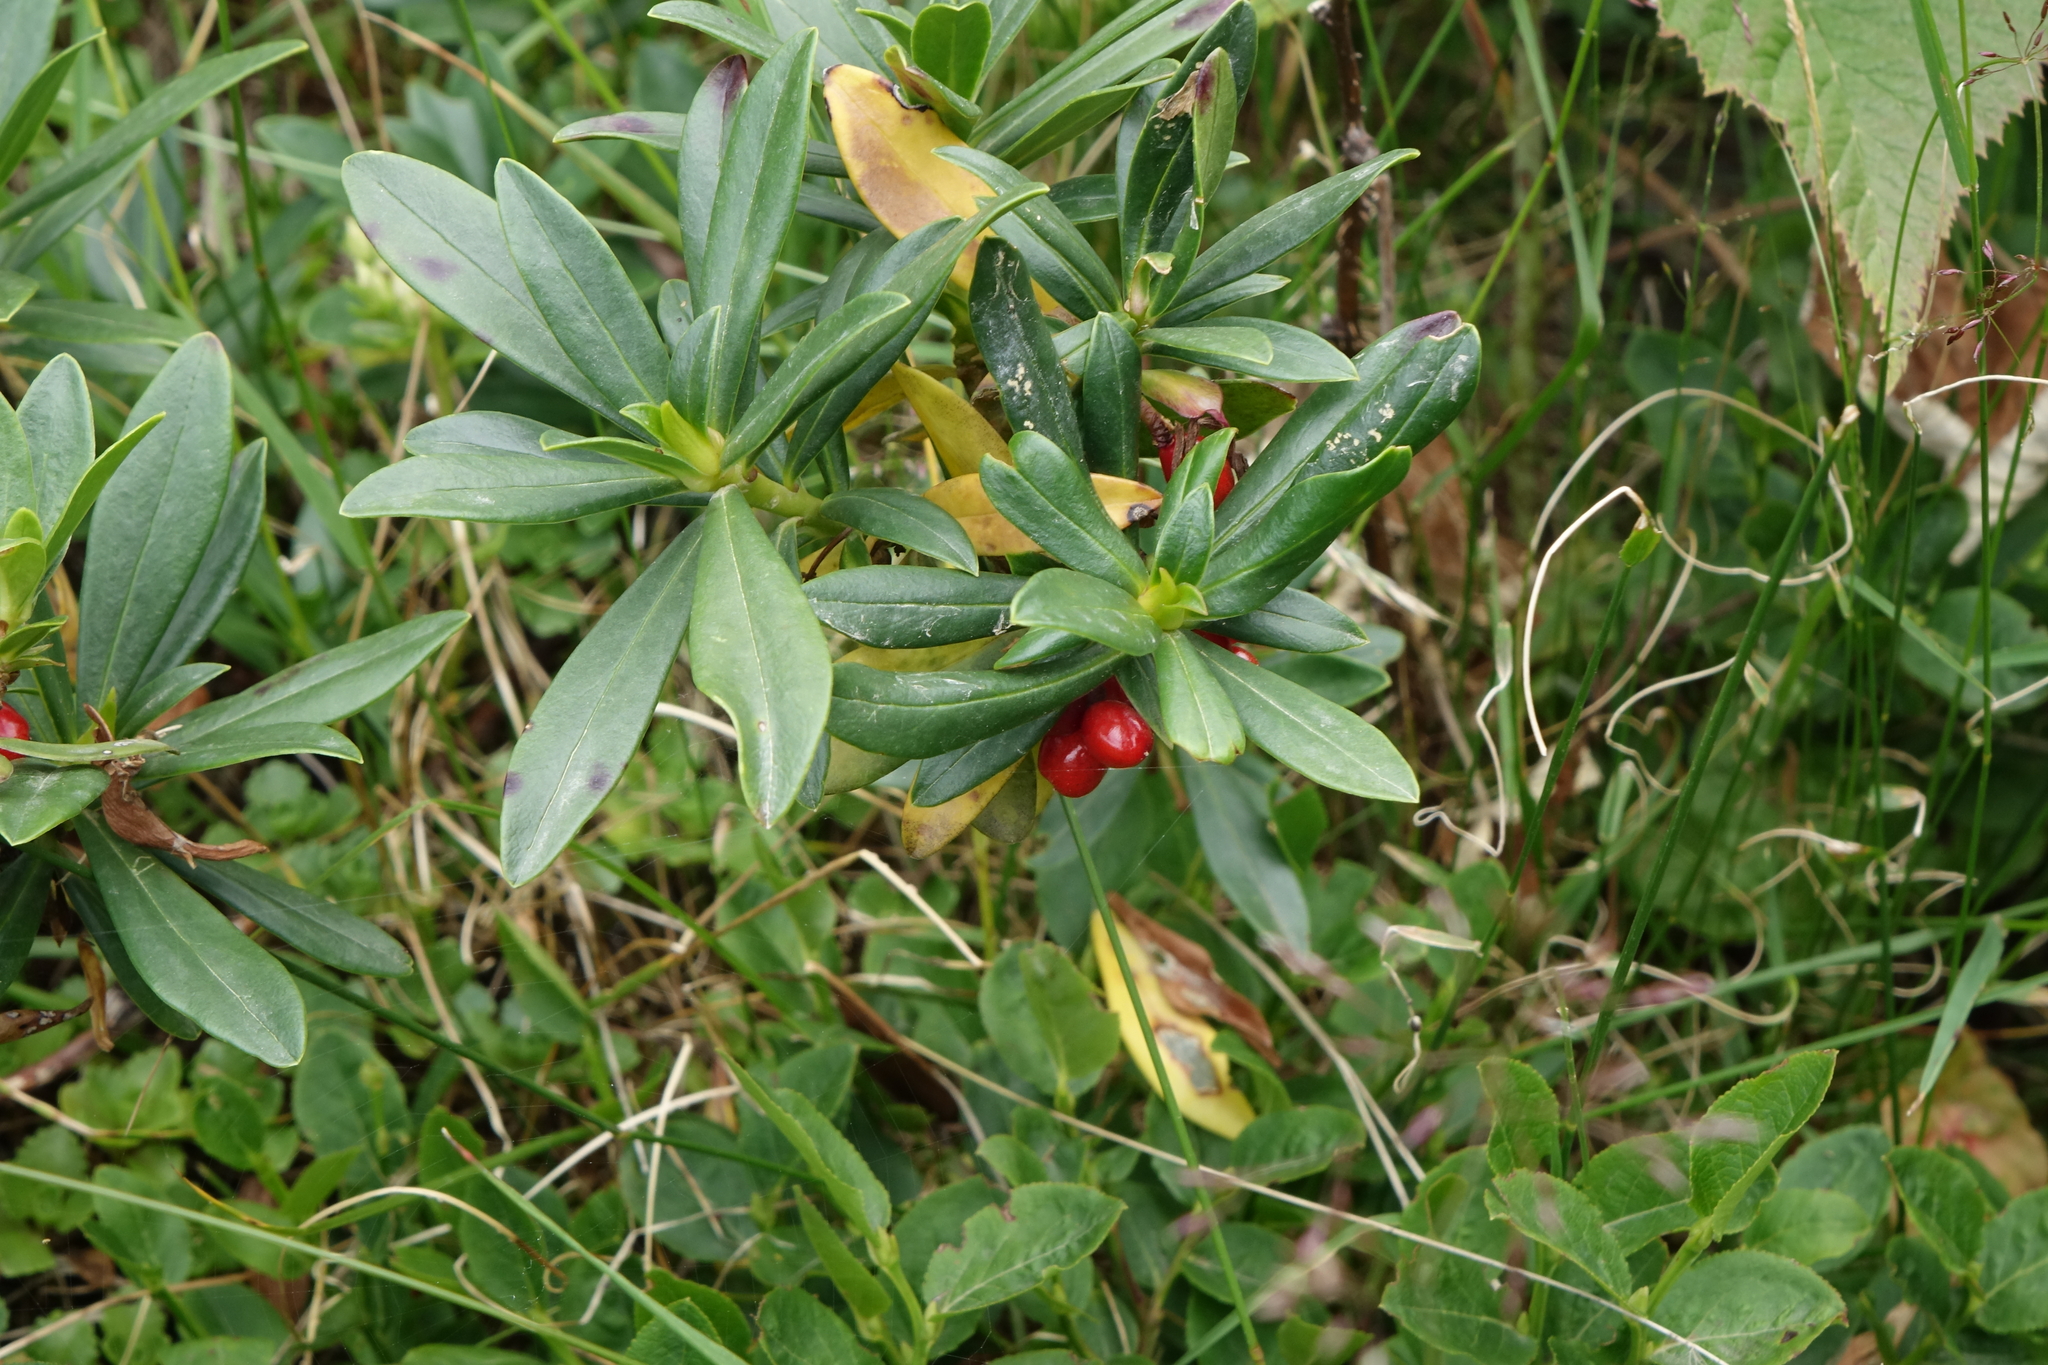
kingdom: Plantae
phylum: Tracheophyta
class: Magnoliopsida
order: Malvales
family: Thymelaeaceae
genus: Daphne
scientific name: Daphne glomerata
